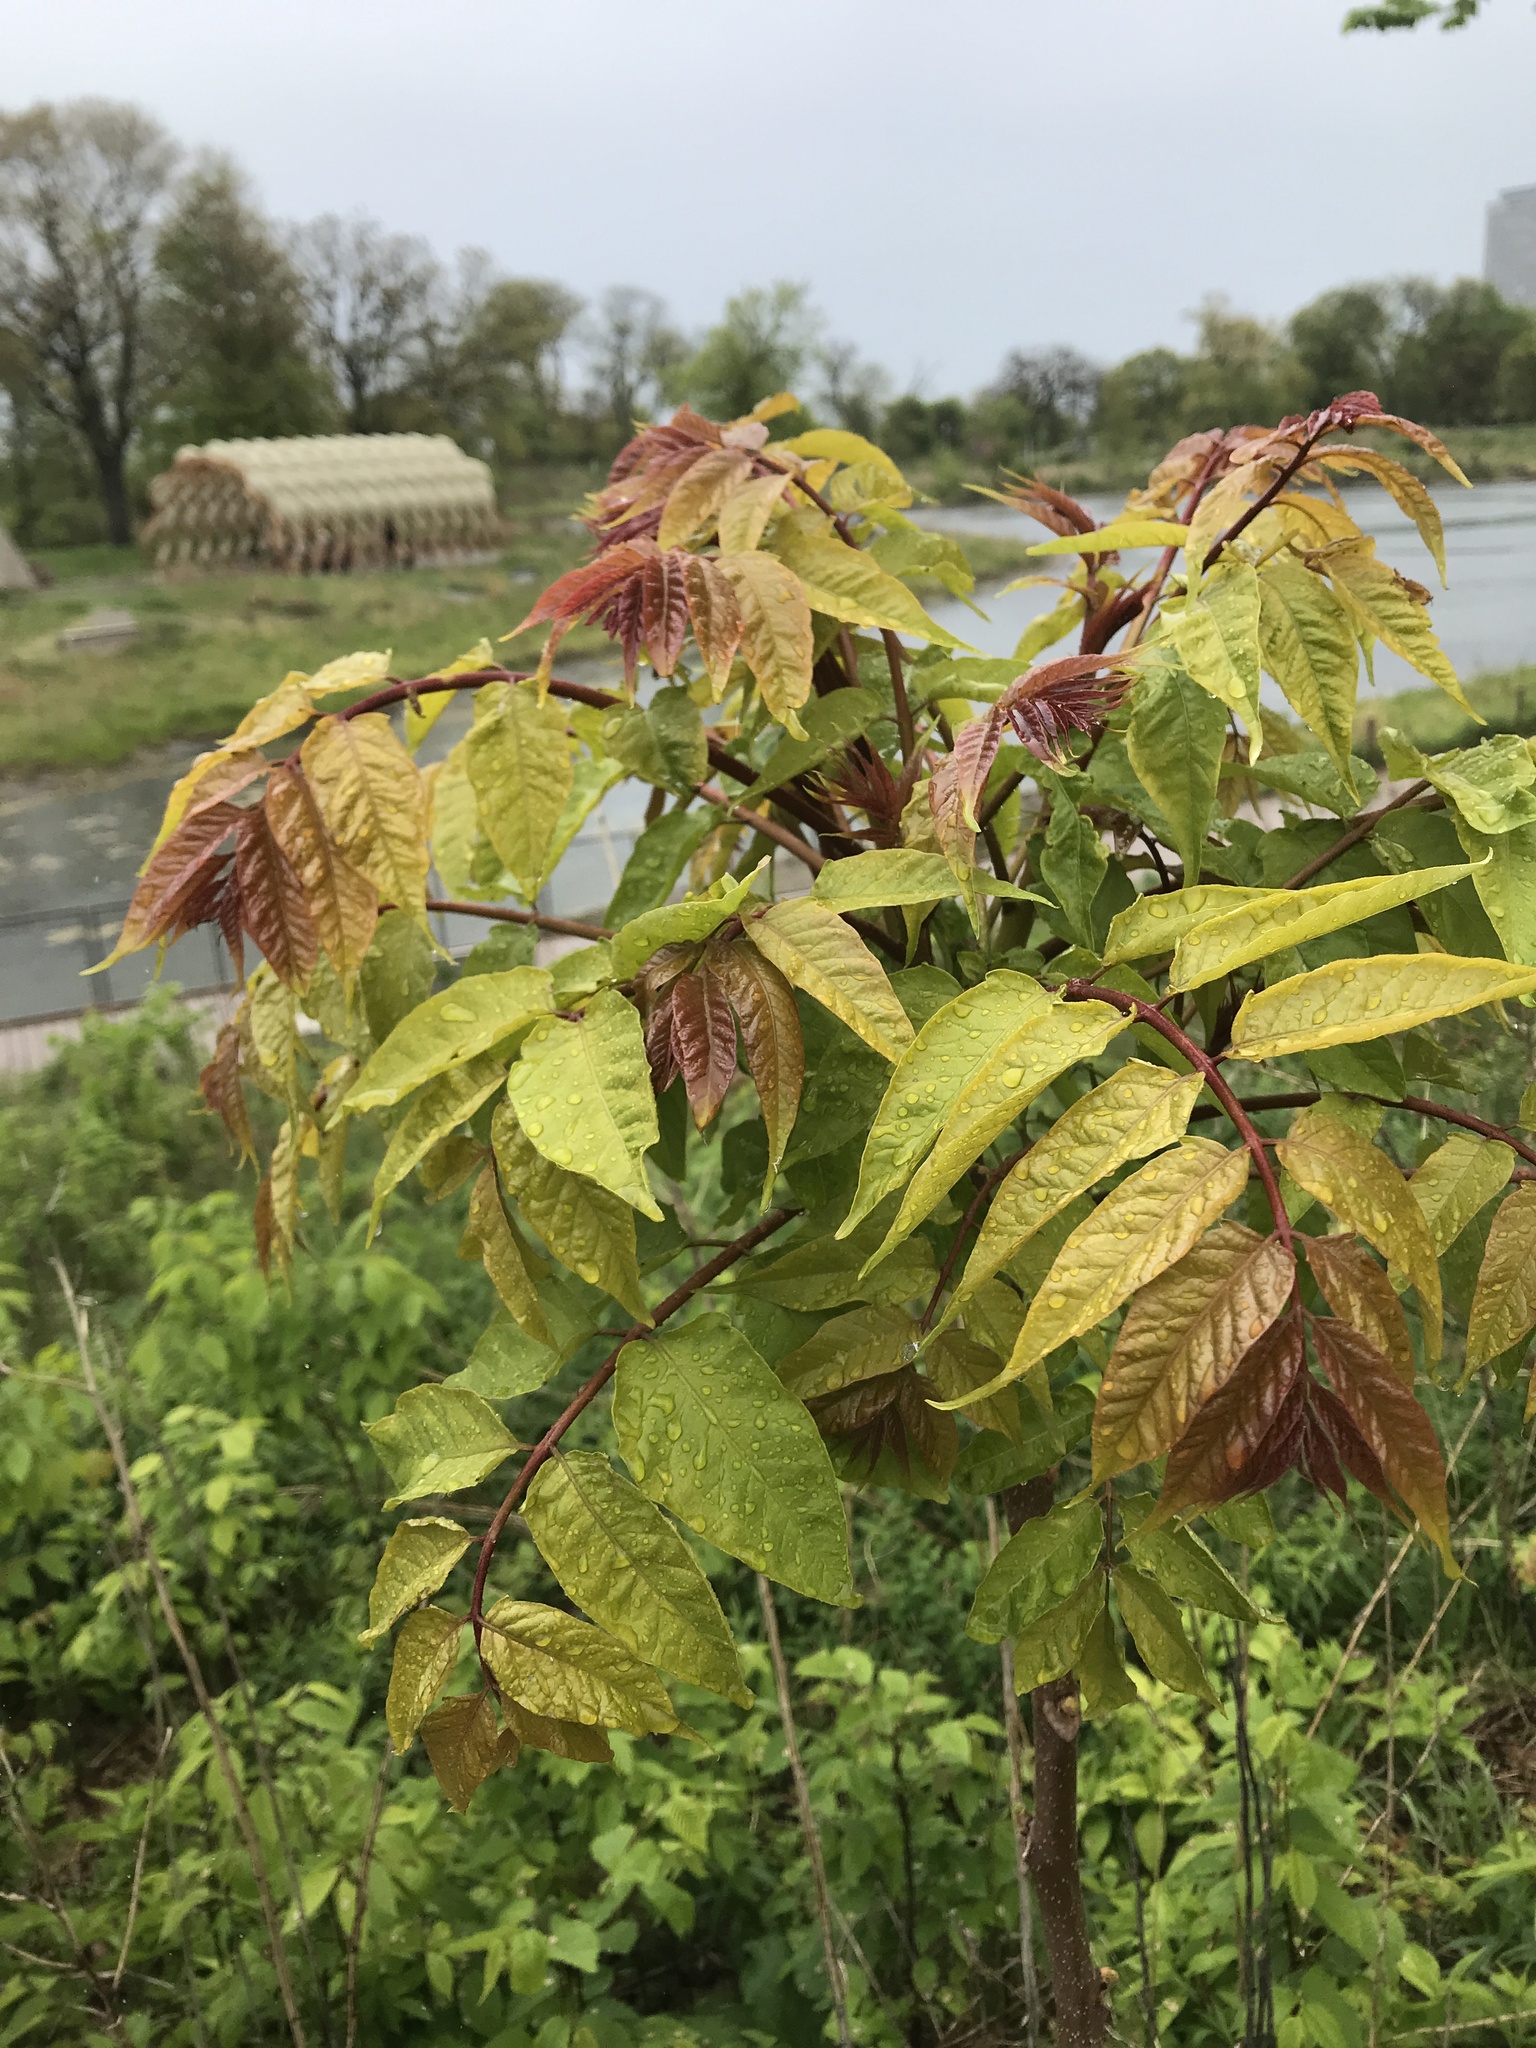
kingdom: Plantae
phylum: Tracheophyta
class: Magnoliopsida
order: Sapindales
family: Simaroubaceae
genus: Ailanthus
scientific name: Ailanthus altissima
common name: Tree-of-heaven
